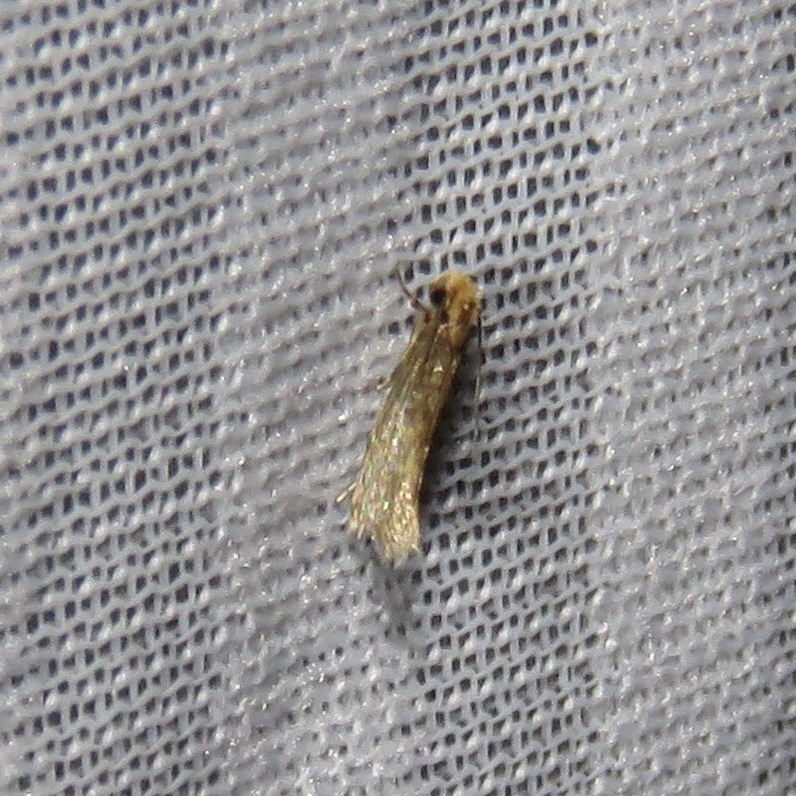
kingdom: Animalia
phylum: Arthropoda
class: Insecta
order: Lepidoptera
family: Tineidae
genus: Tinea
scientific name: Tinea apicimaculella
